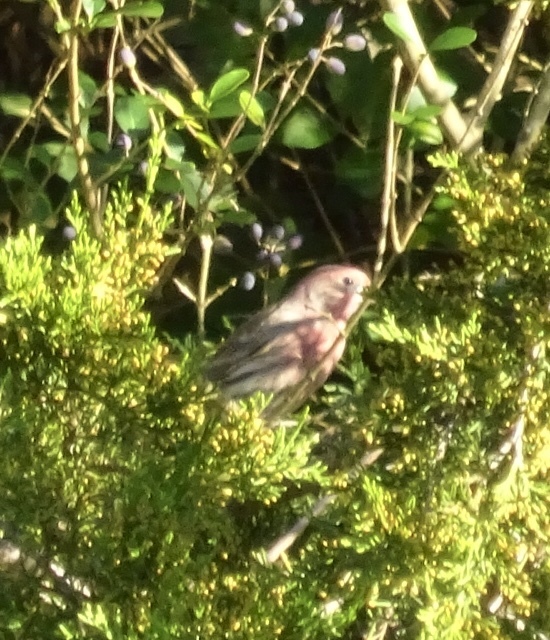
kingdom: Animalia
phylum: Chordata
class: Aves
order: Passeriformes
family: Fringillidae
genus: Haemorhous
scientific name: Haemorhous mexicanus
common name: House finch
